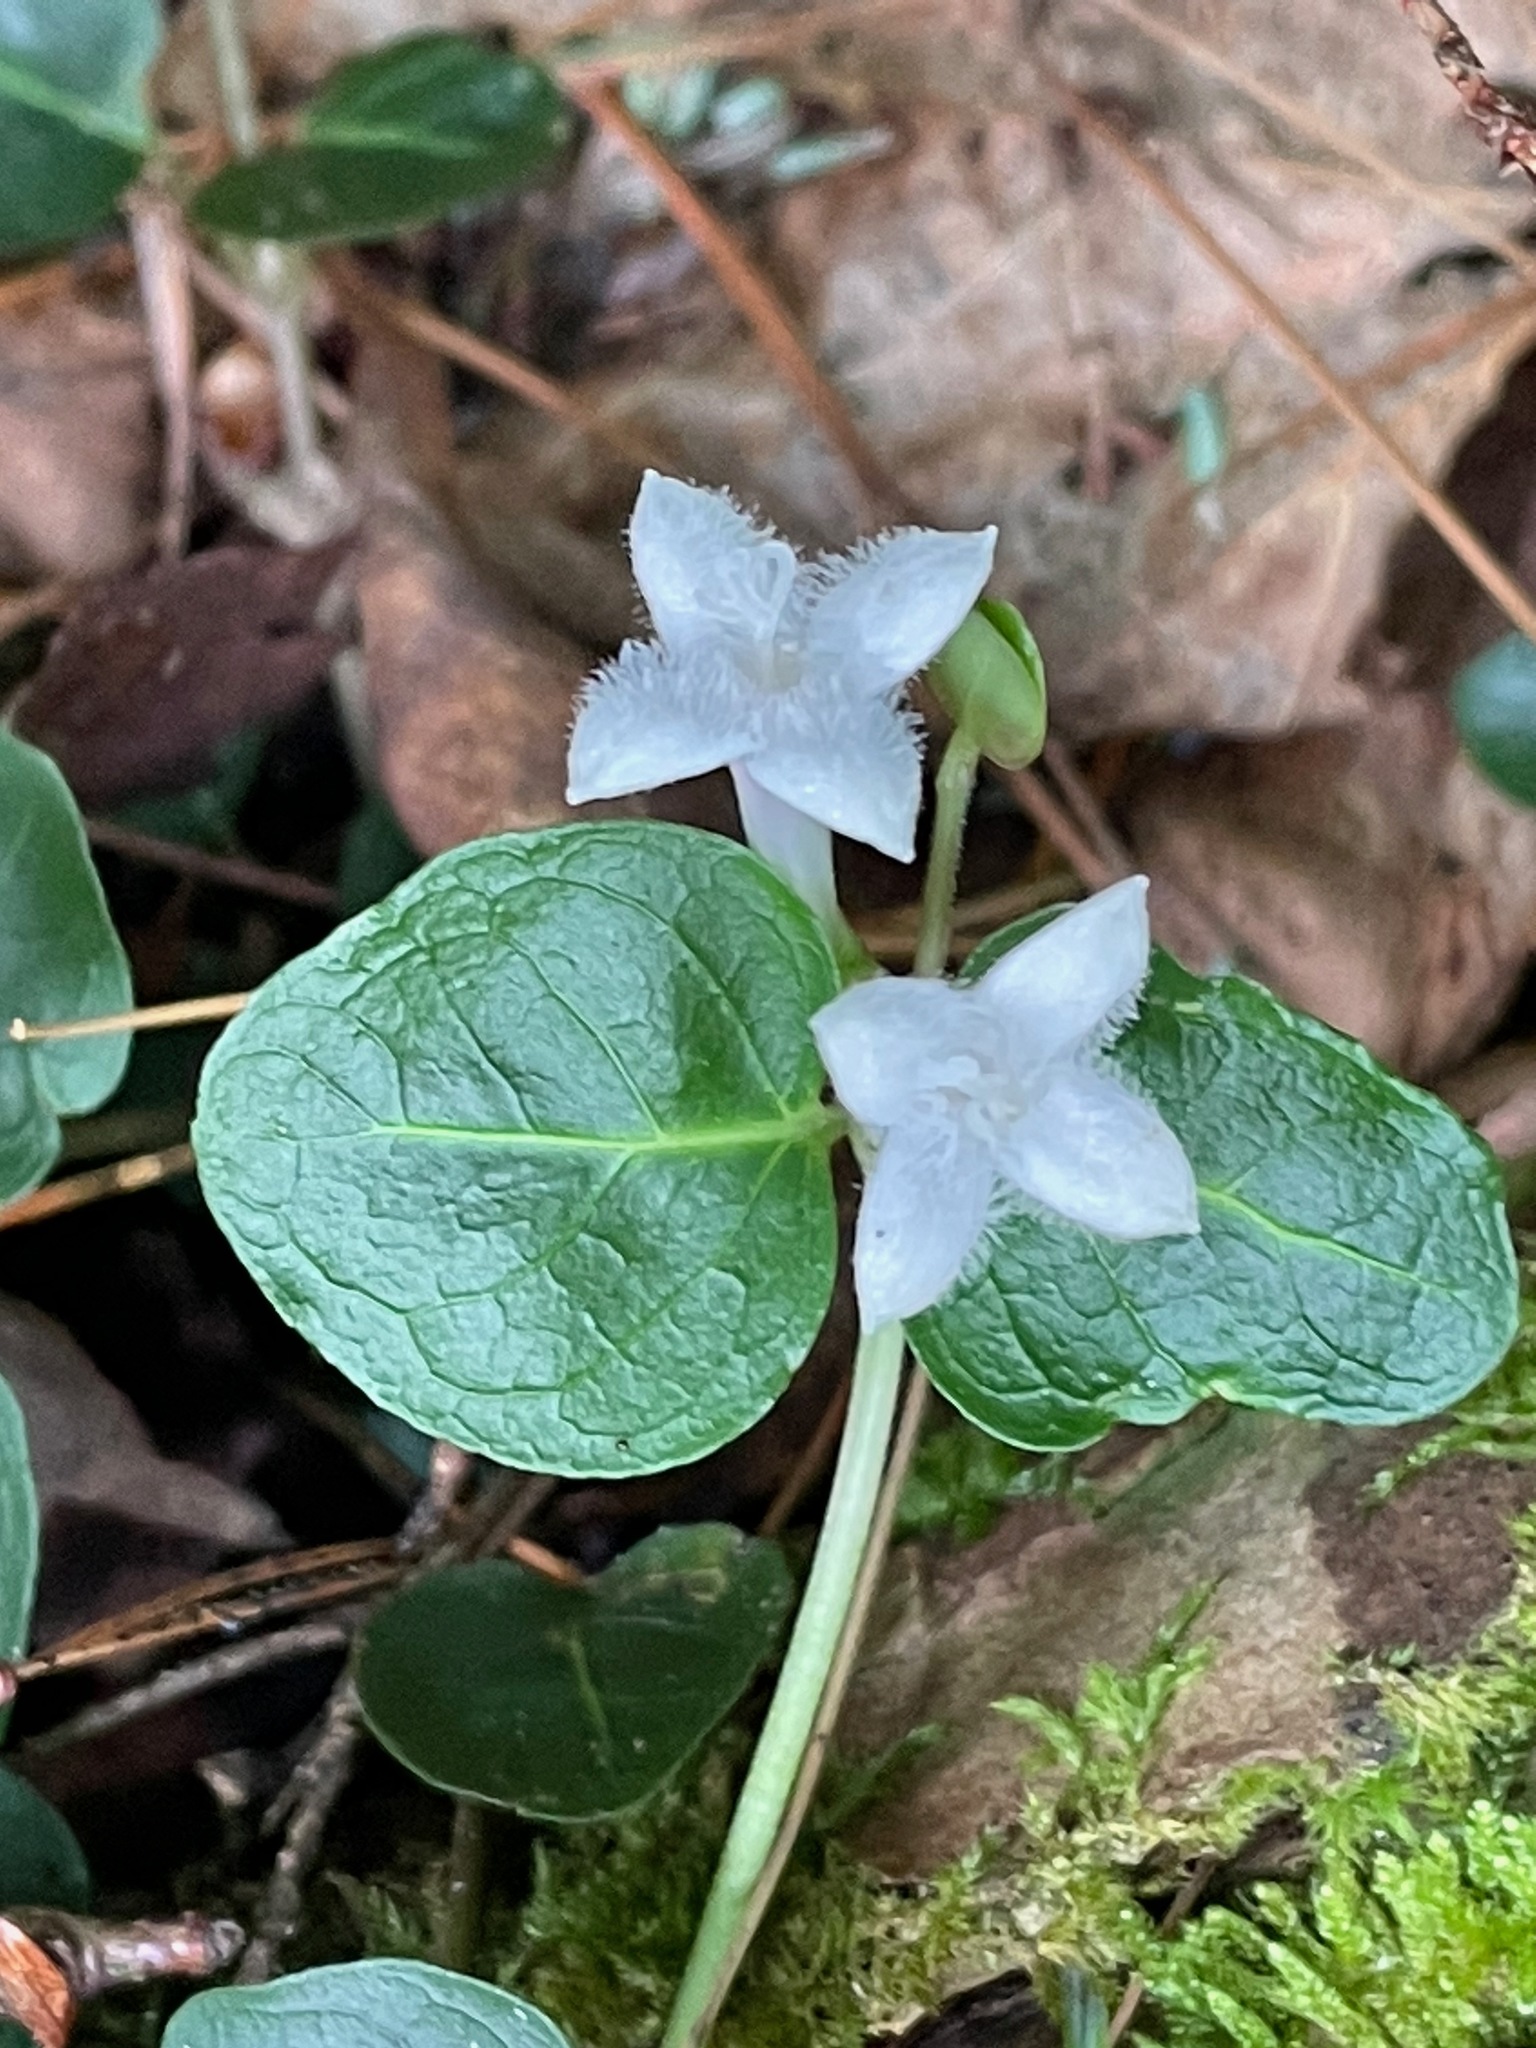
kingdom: Plantae
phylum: Tracheophyta
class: Magnoliopsida
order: Gentianales
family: Rubiaceae
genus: Mitchella
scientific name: Mitchella repens
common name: Partridge-berry
